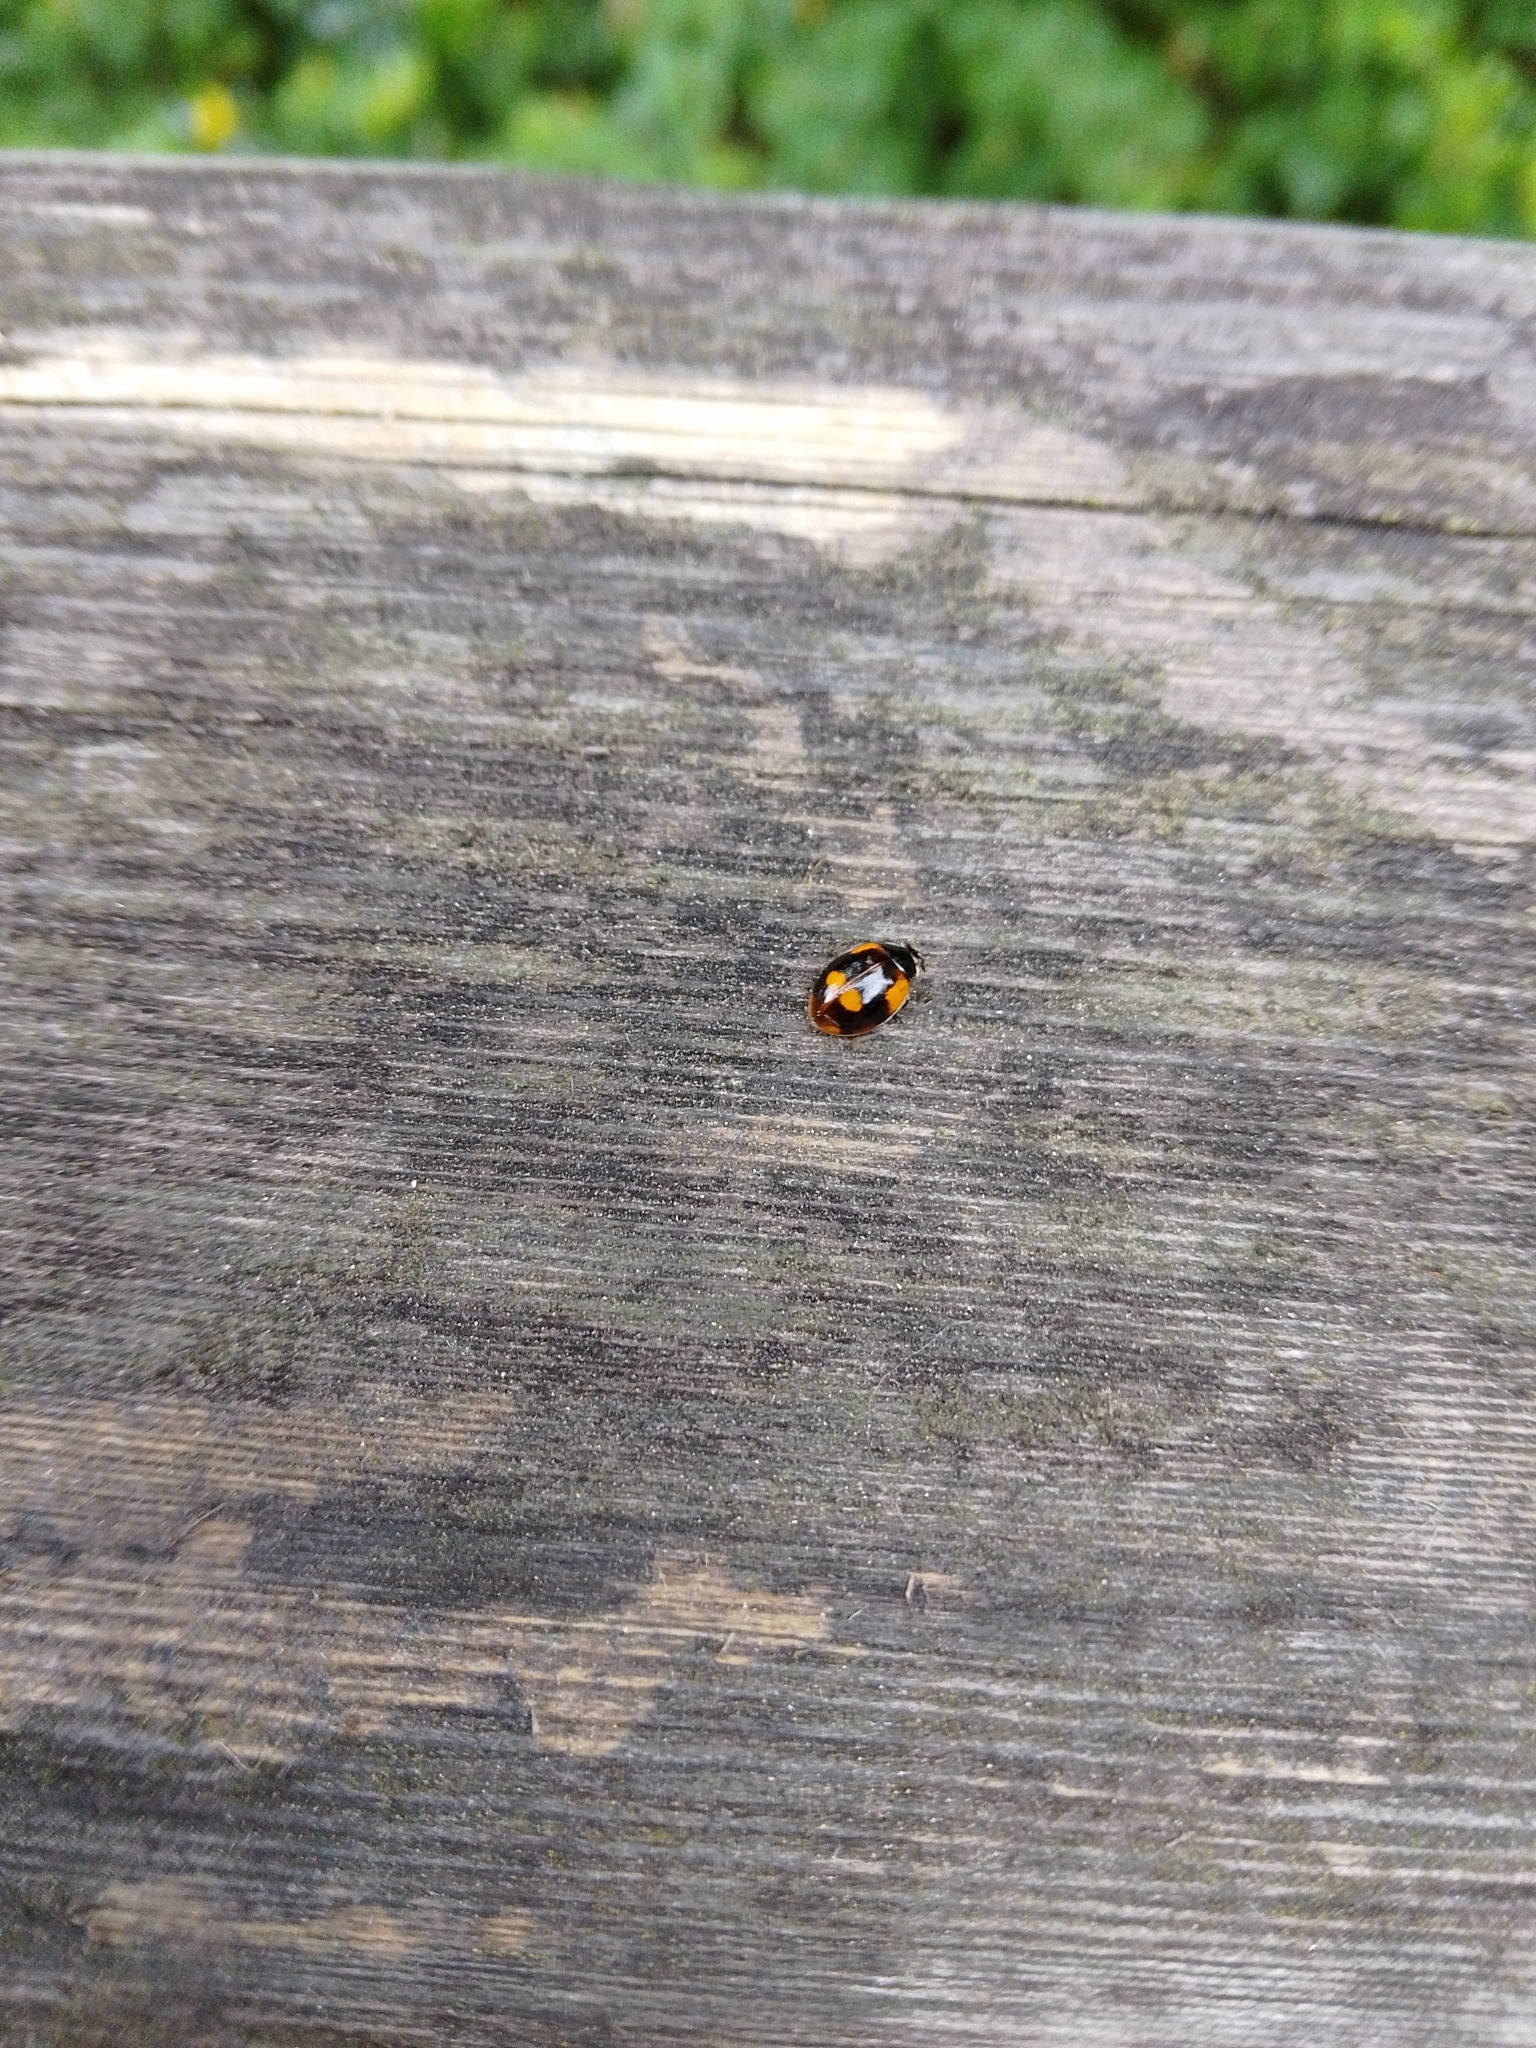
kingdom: Animalia
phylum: Arthropoda
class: Insecta
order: Coleoptera
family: Coccinellidae
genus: Adalia
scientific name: Adalia bipunctata
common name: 2-spot ladybird
